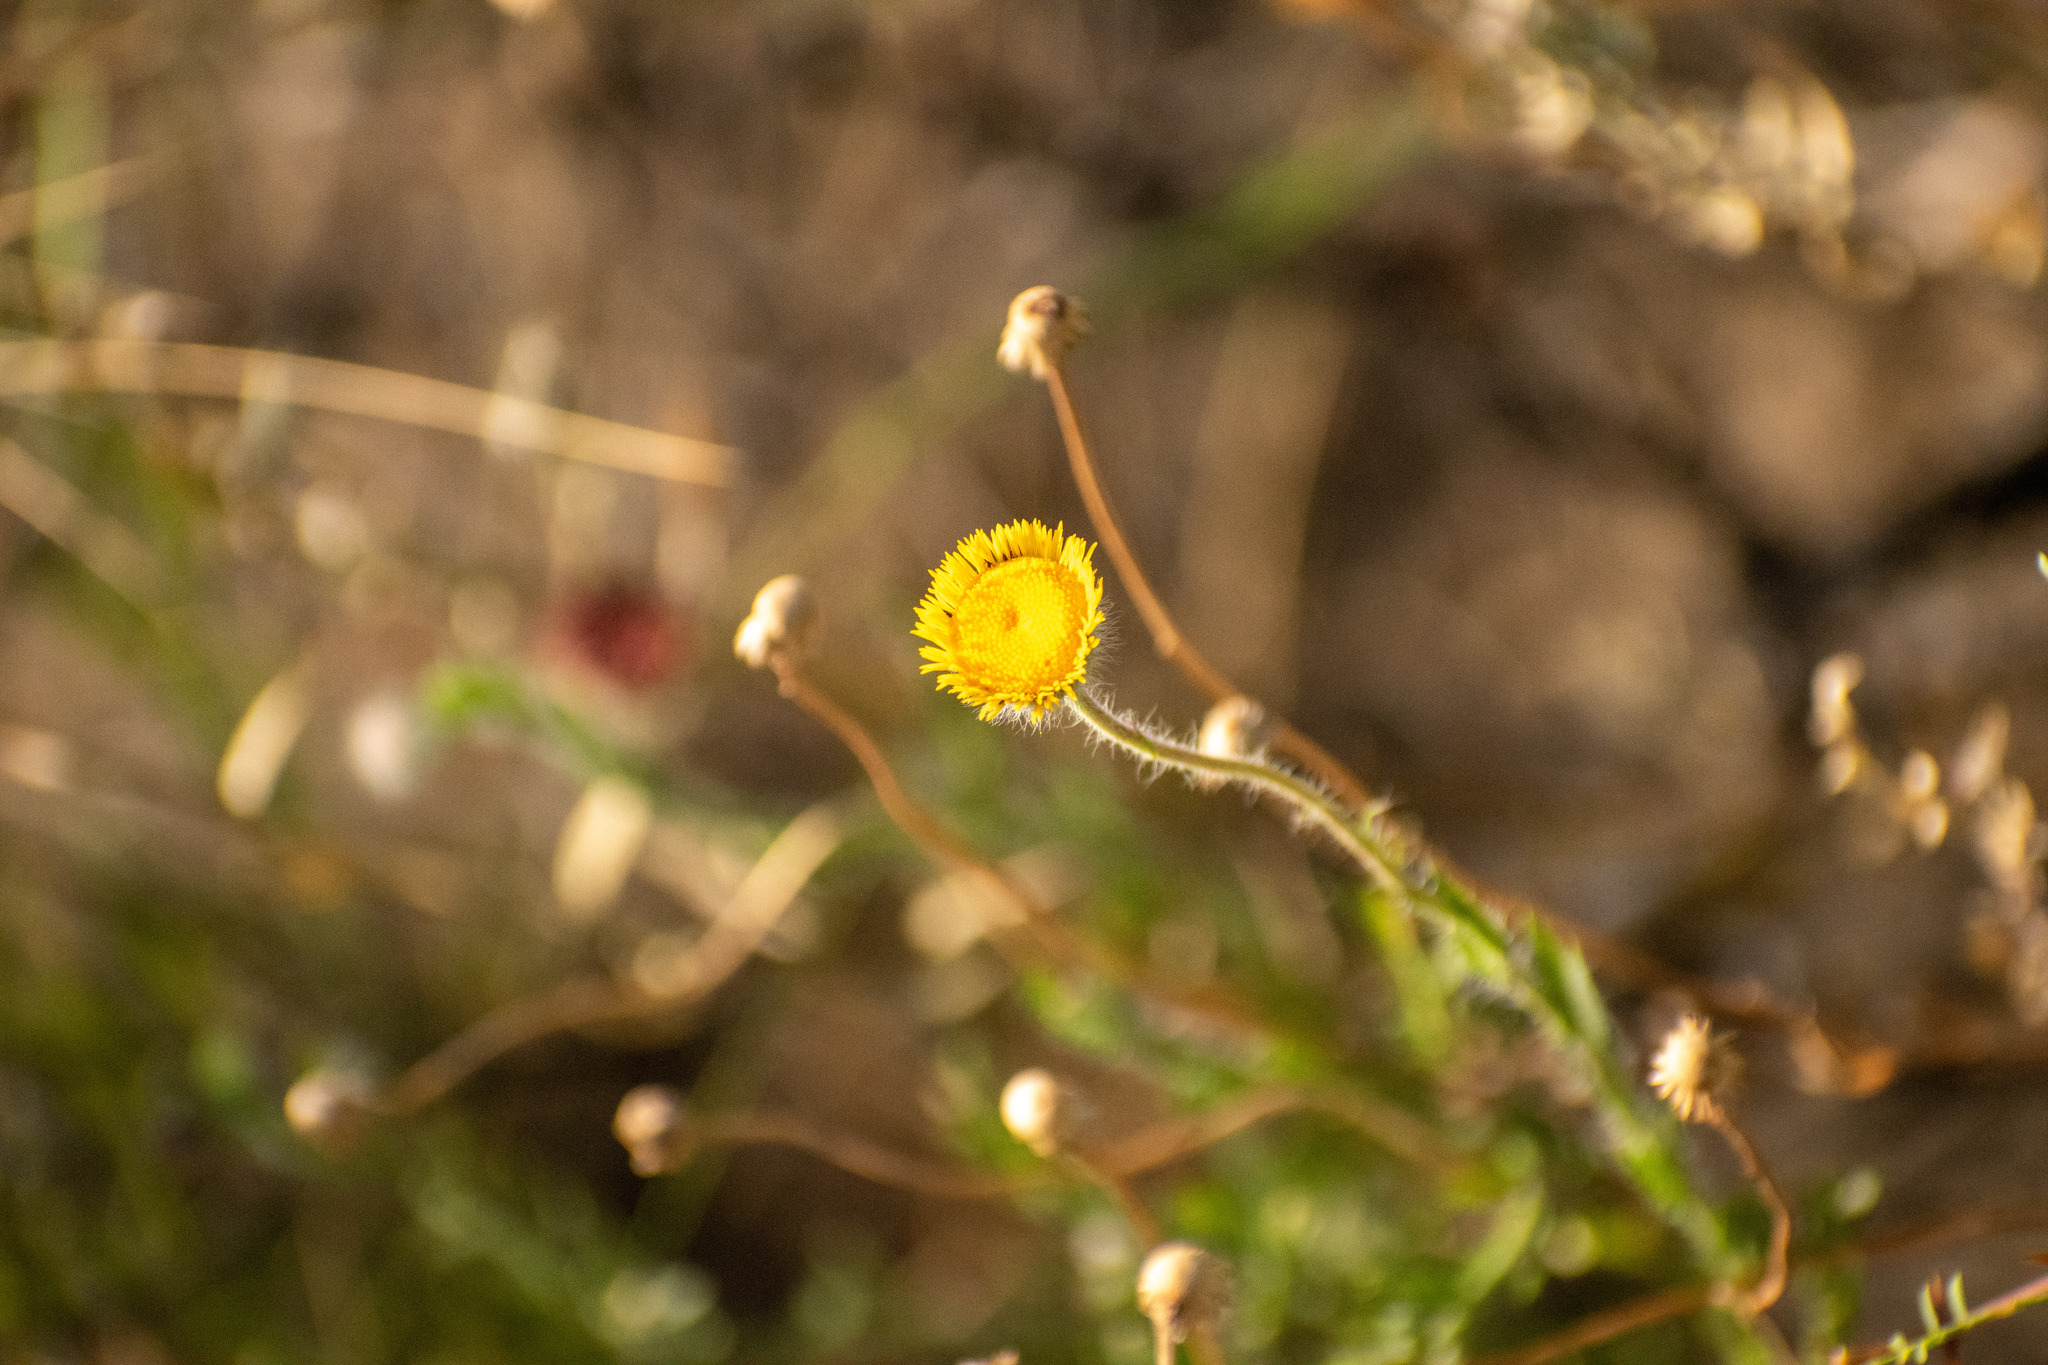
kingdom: Plantae
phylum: Tracheophyta
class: Magnoliopsida
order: Asterales
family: Asteraceae
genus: Hysterionica
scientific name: Hysterionica jasionoides
